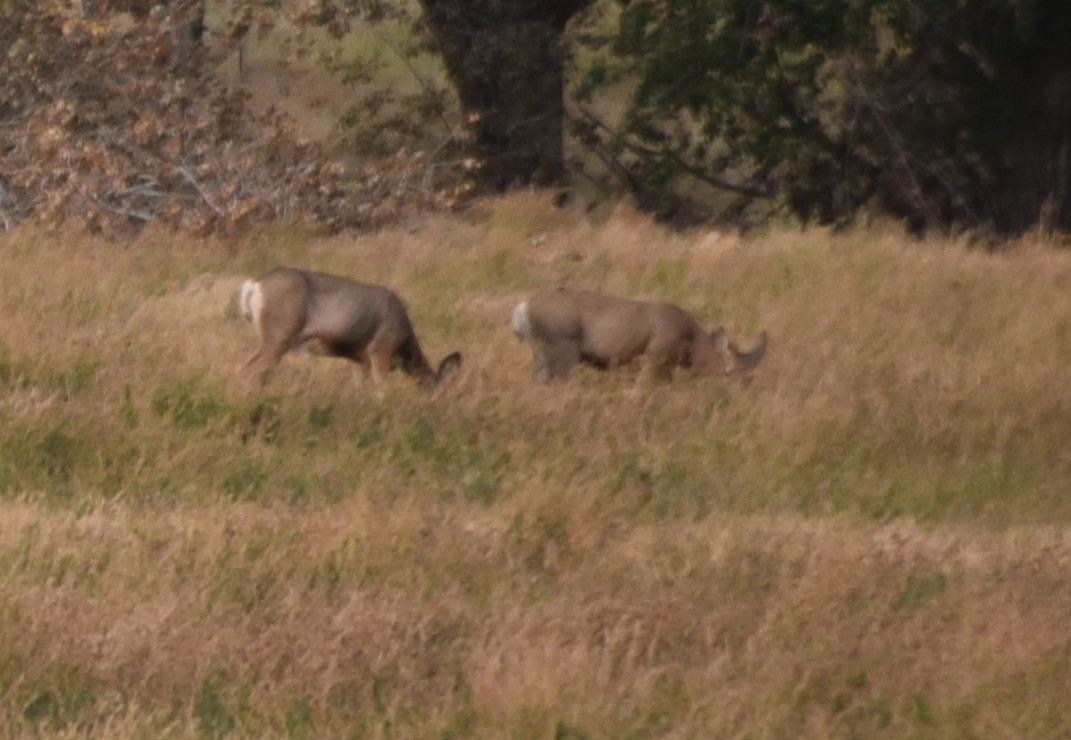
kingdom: Animalia
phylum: Chordata
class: Mammalia
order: Artiodactyla
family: Cervidae
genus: Odocoileus
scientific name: Odocoileus hemionus
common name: Mule deer
